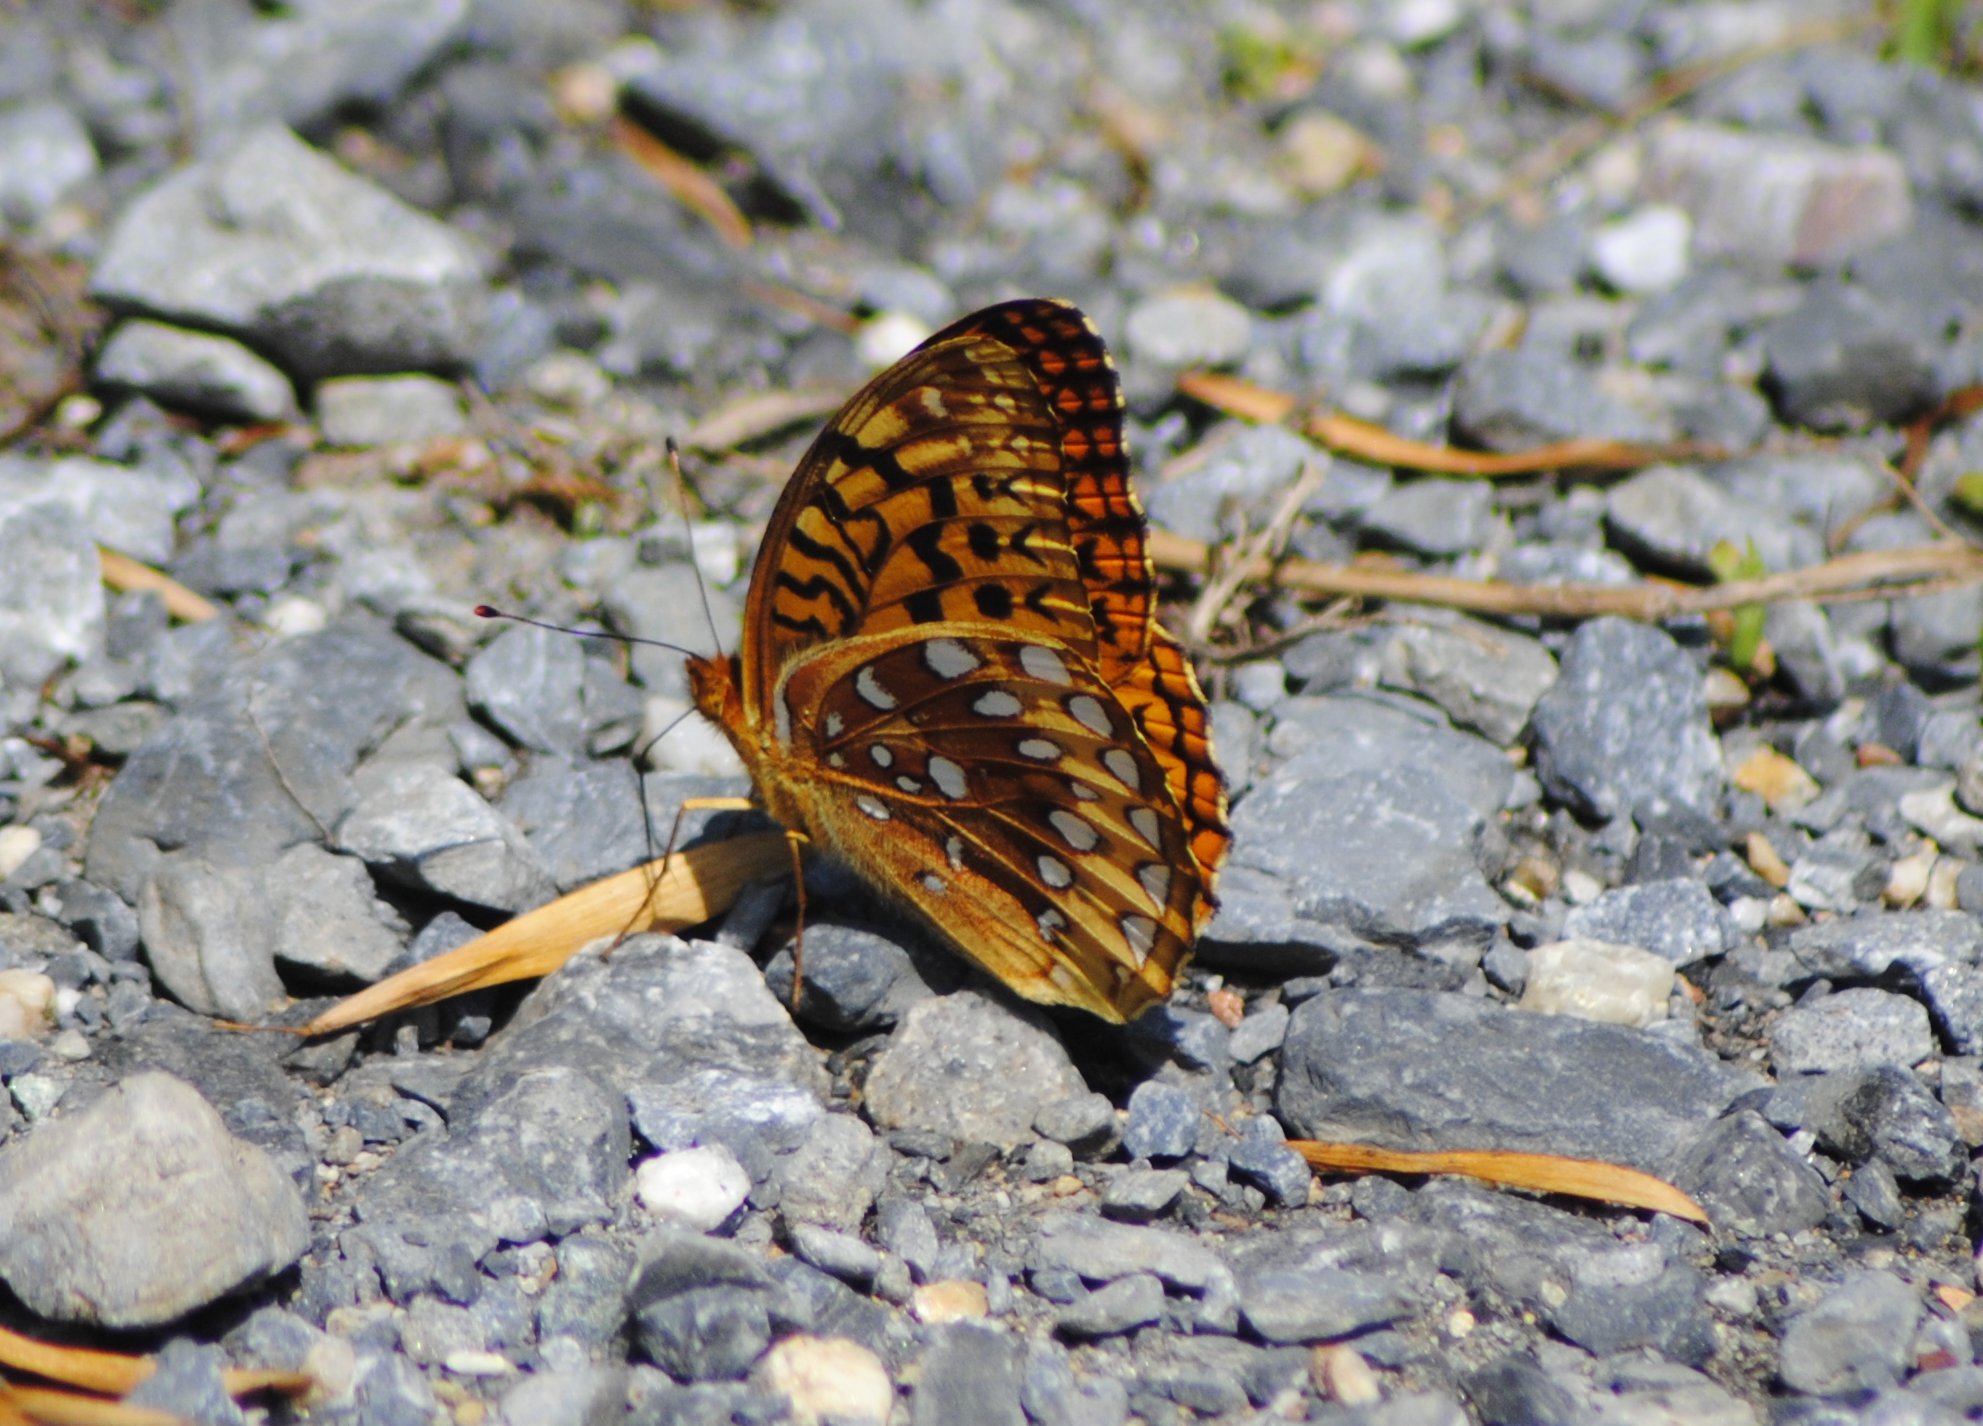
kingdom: Animalia
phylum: Arthropoda
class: Insecta
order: Lepidoptera
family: Nymphalidae
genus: Speyeria
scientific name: Speyeria cybele
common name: Great spangled fritillary
